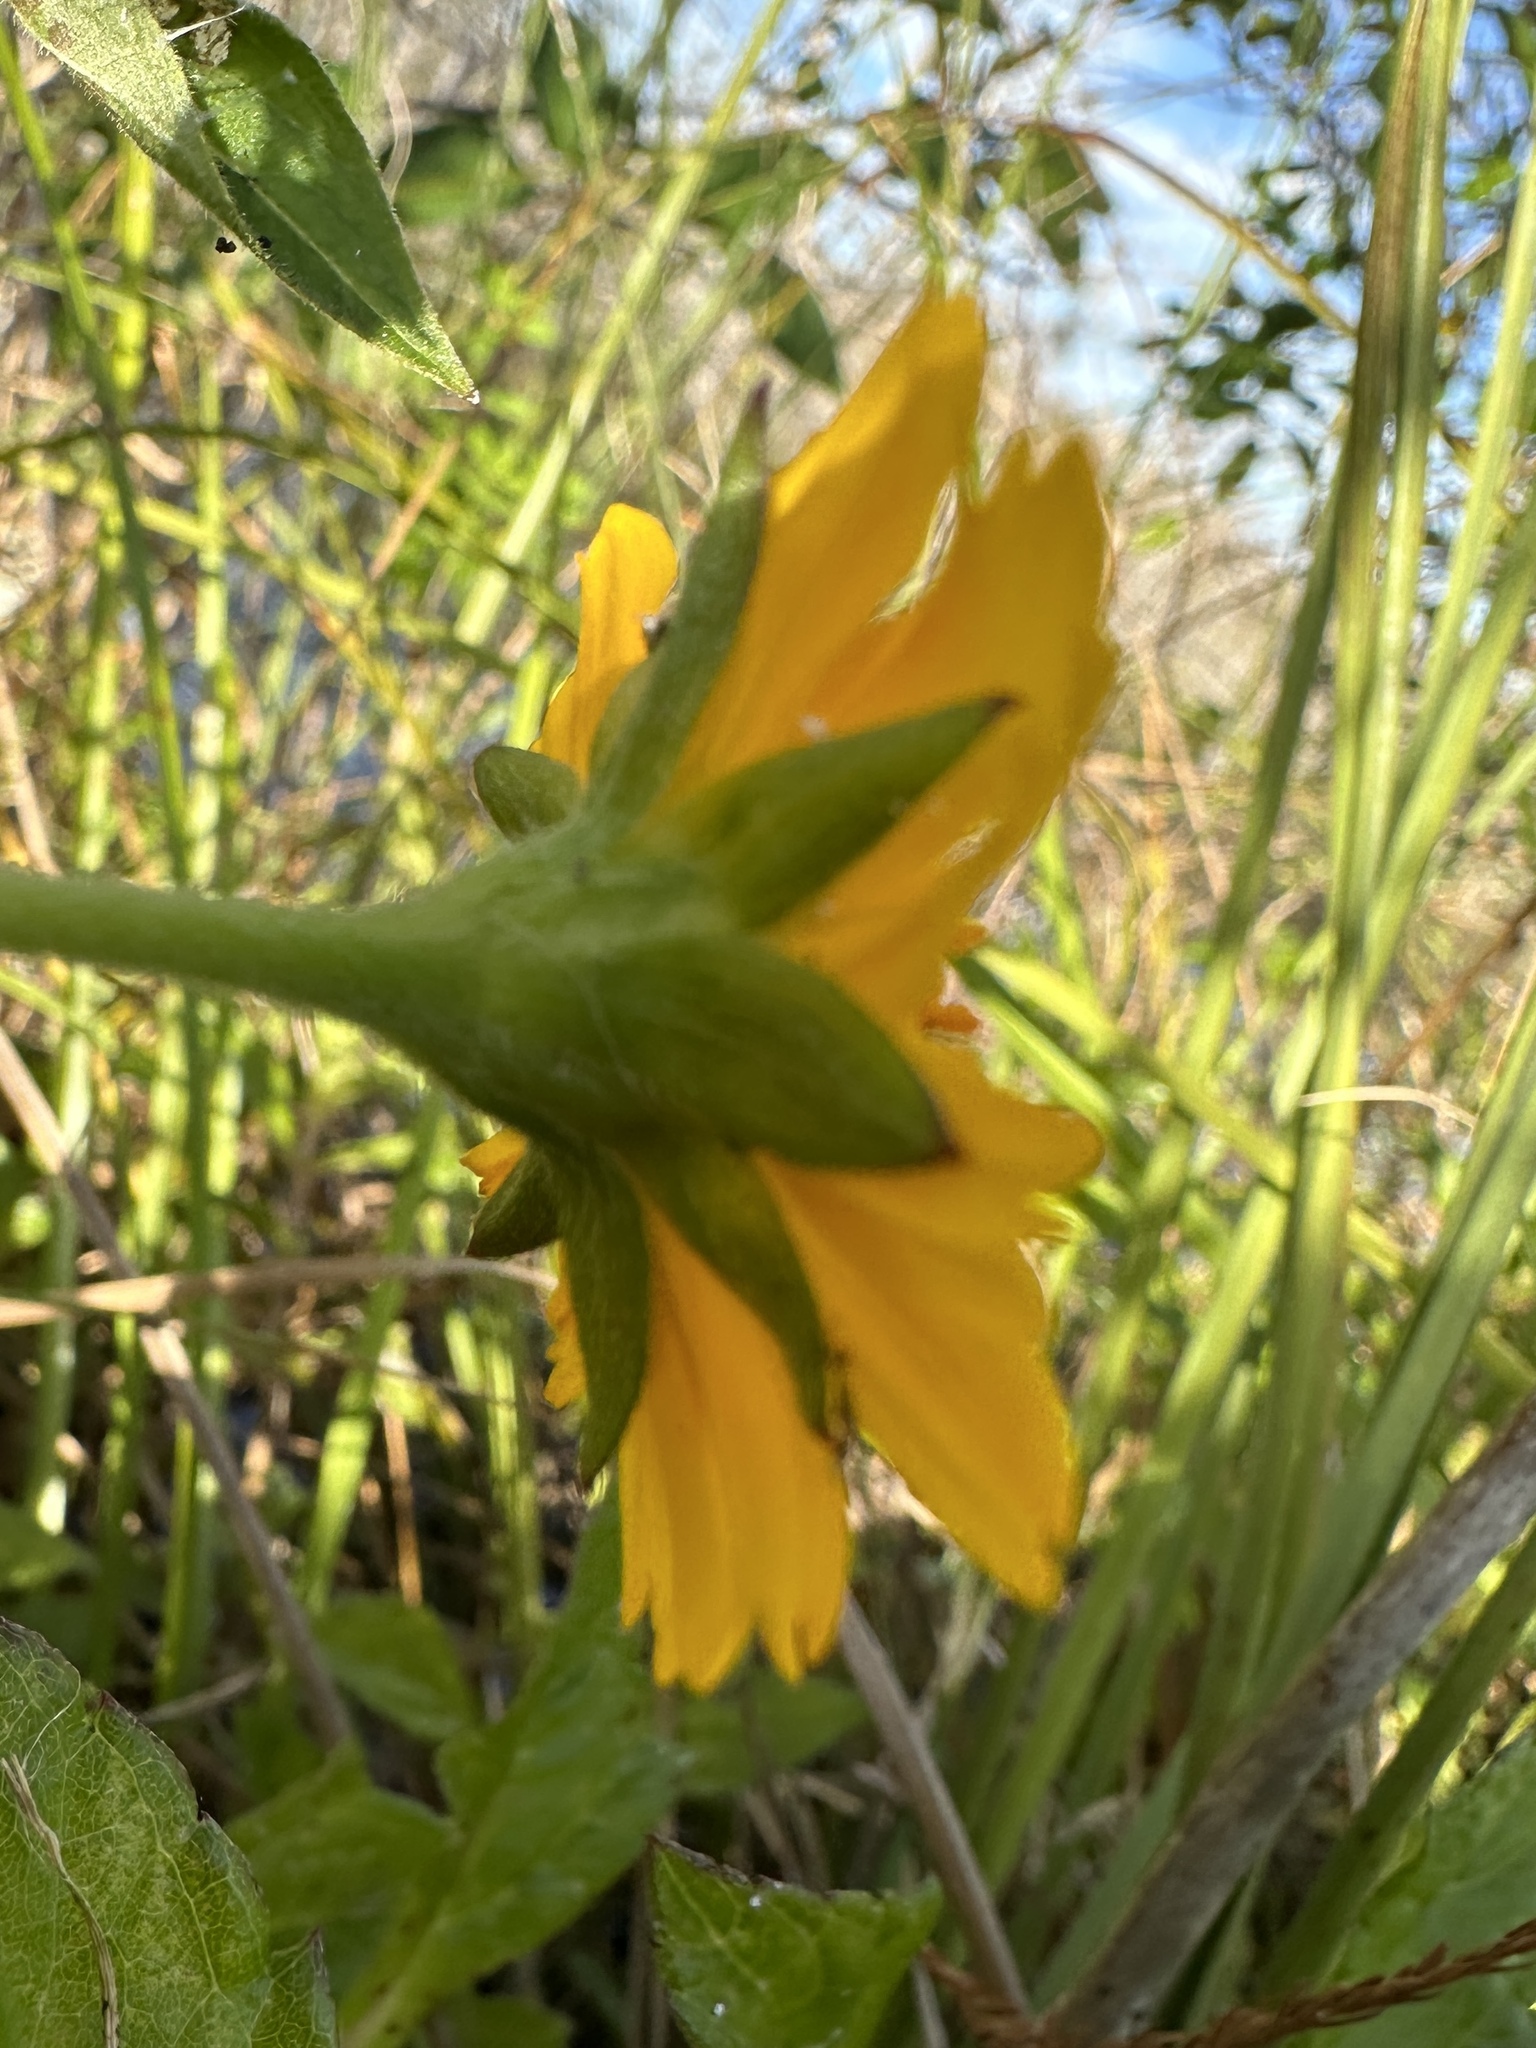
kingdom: Plantae
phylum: Tracheophyta
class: Magnoliopsida
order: Asterales
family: Asteraceae
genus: Sphagneticola
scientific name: Sphagneticola trilobata
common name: Bay biscayne creeping-oxeye
